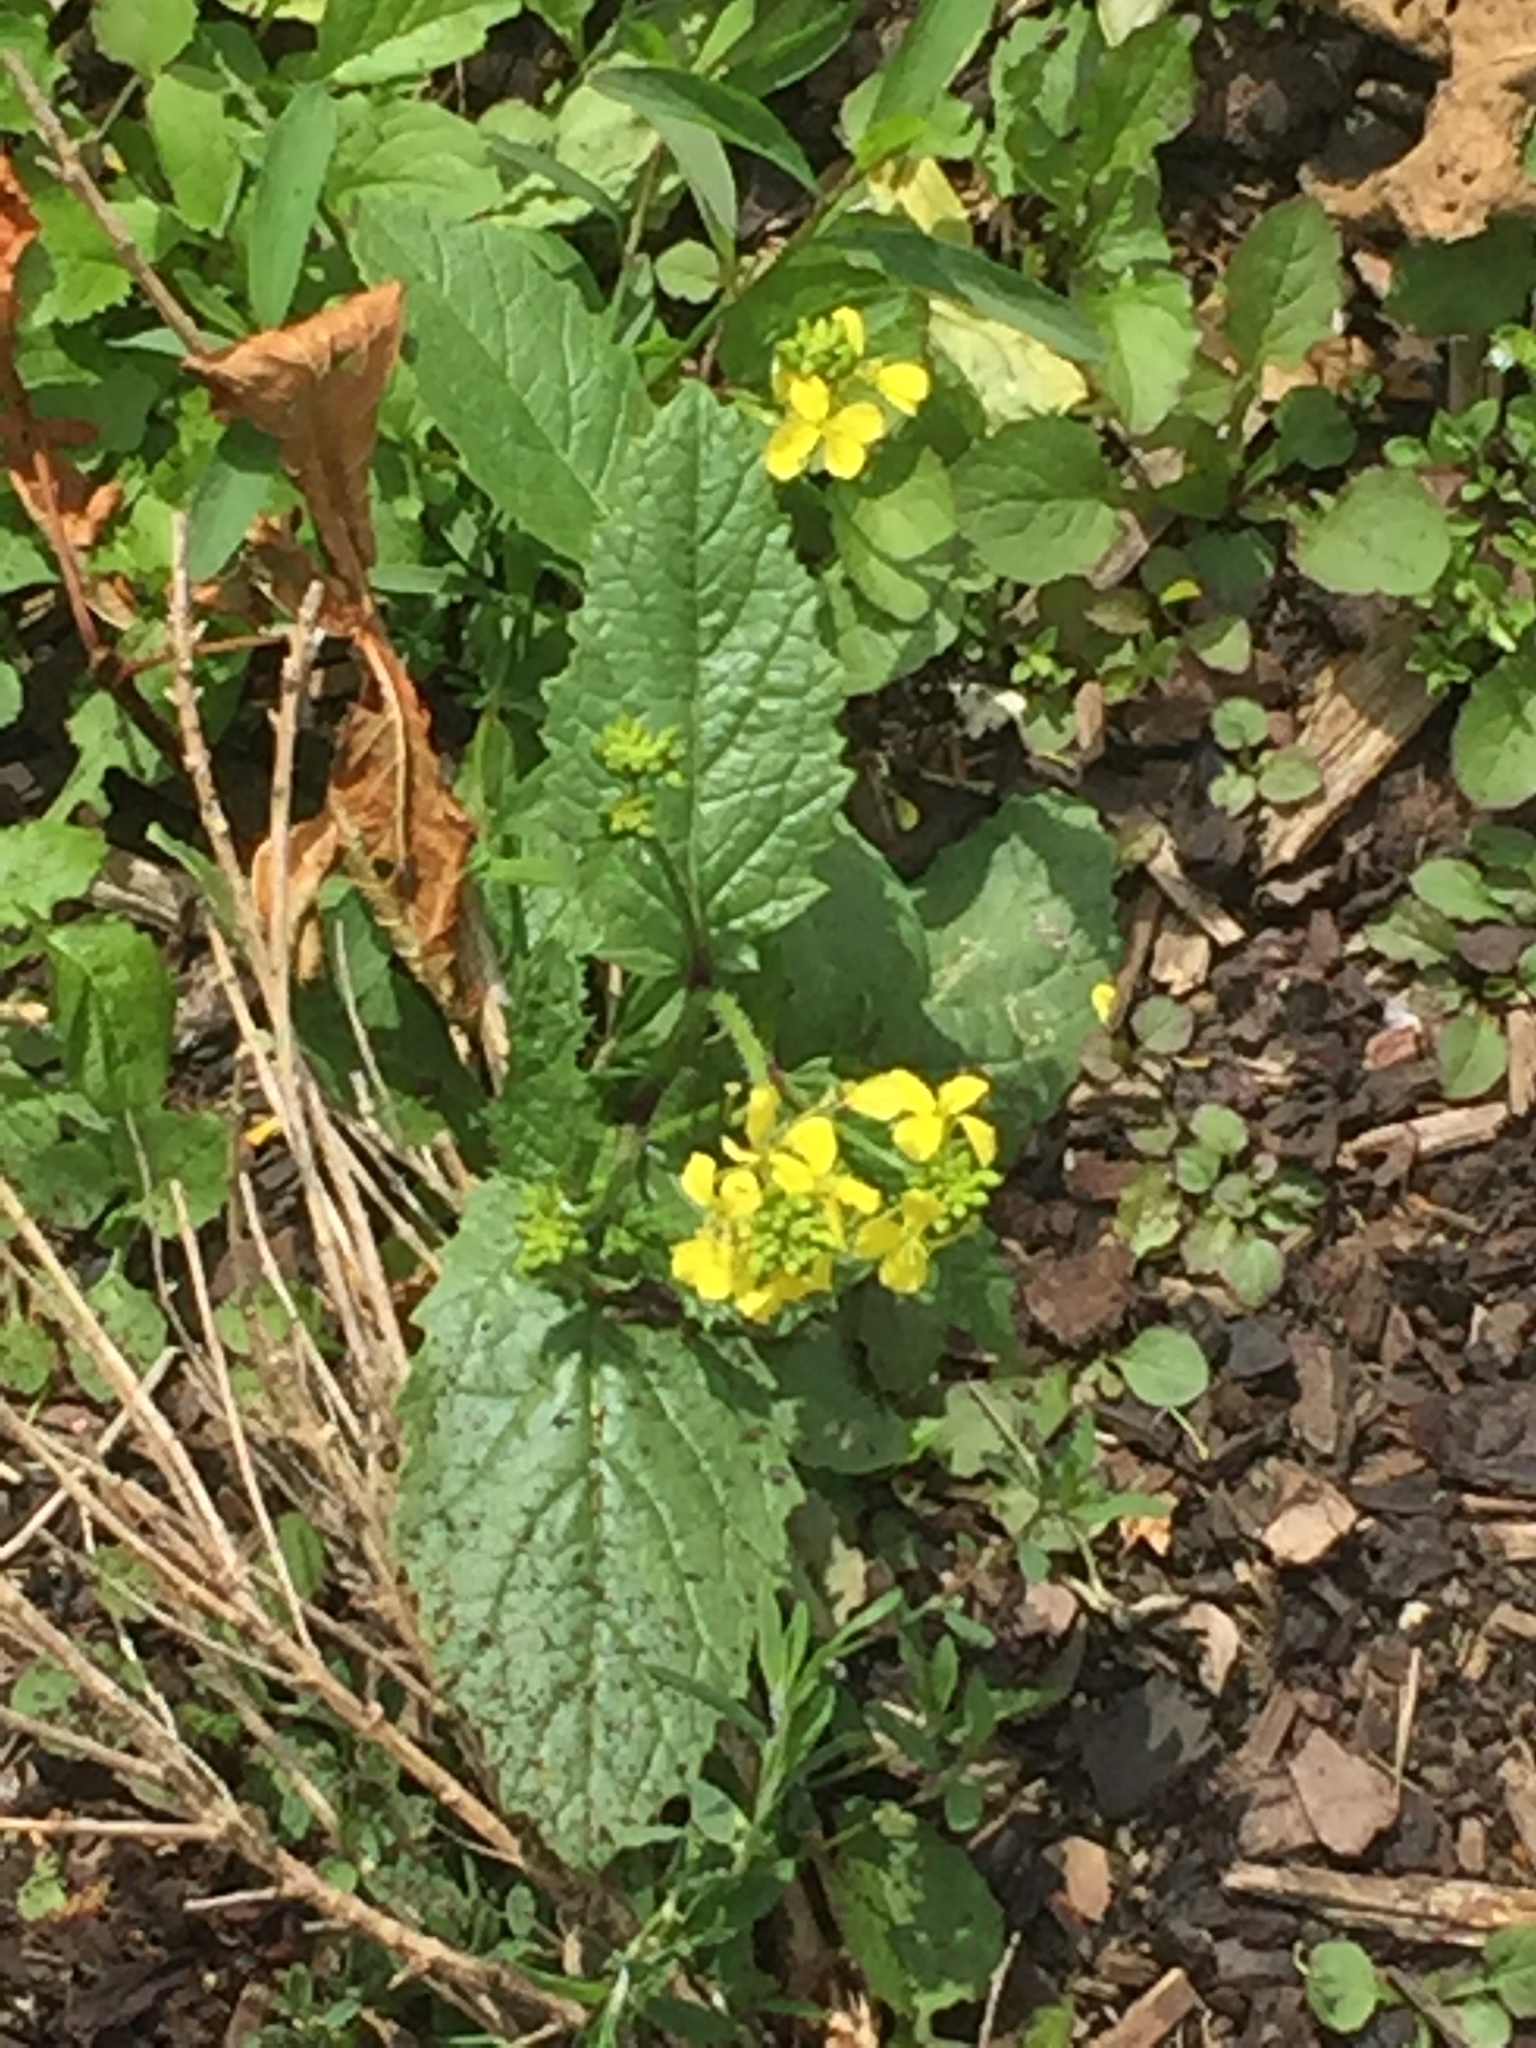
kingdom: Plantae
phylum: Tracheophyta
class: Magnoliopsida
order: Brassicales
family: Brassicaceae
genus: Sinapis
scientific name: Sinapis arvensis
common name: Charlock
